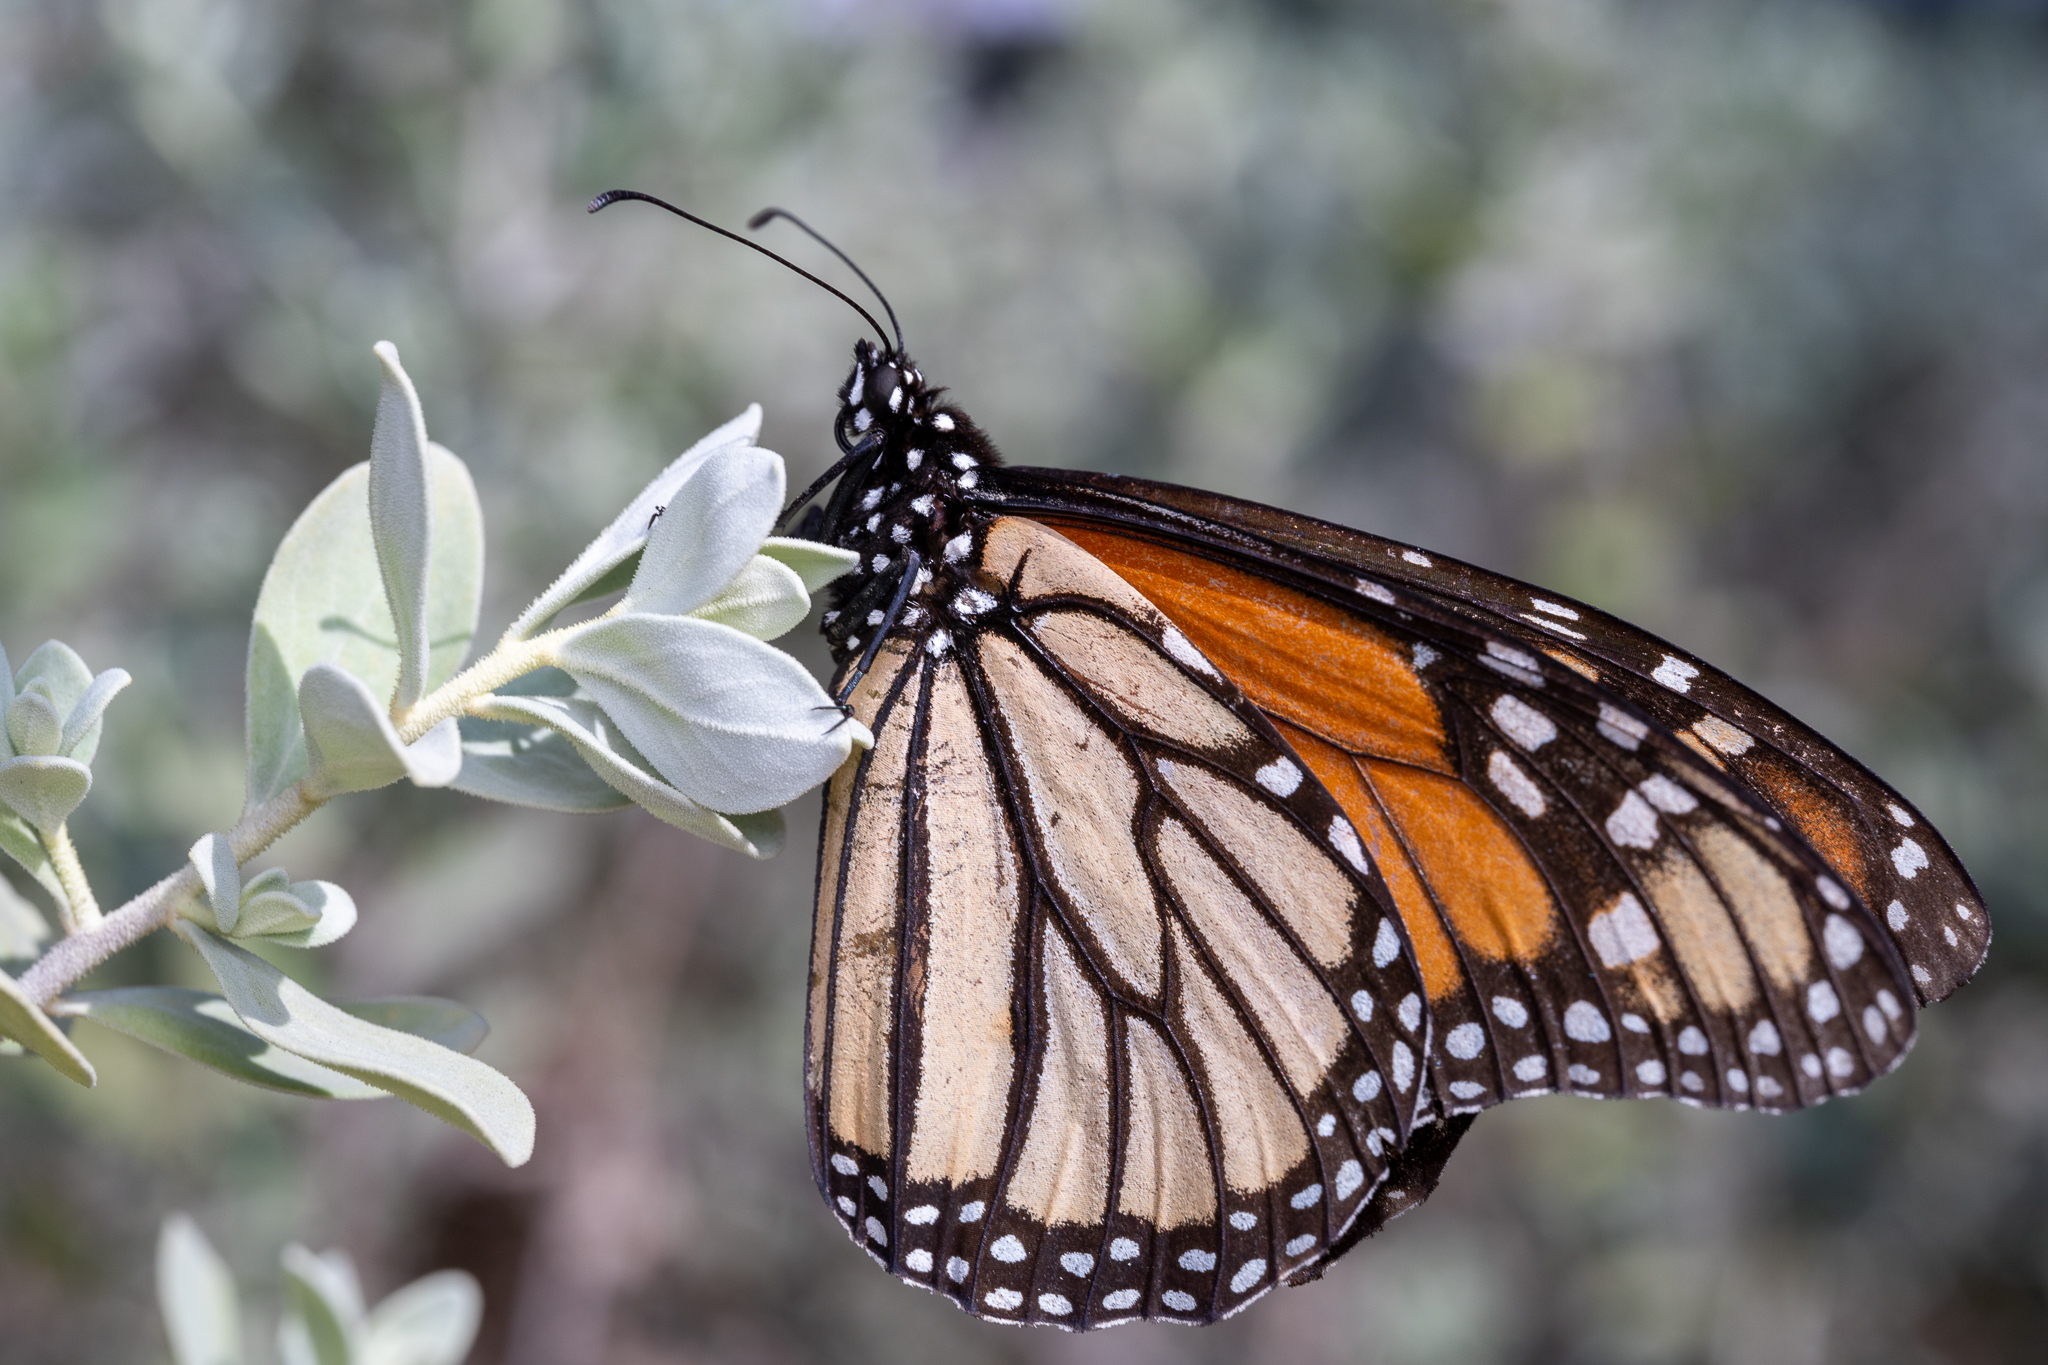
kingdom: Animalia
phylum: Arthropoda
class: Insecta
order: Lepidoptera
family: Nymphalidae
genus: Danaus
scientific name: Danaus plexippus
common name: Monarch
